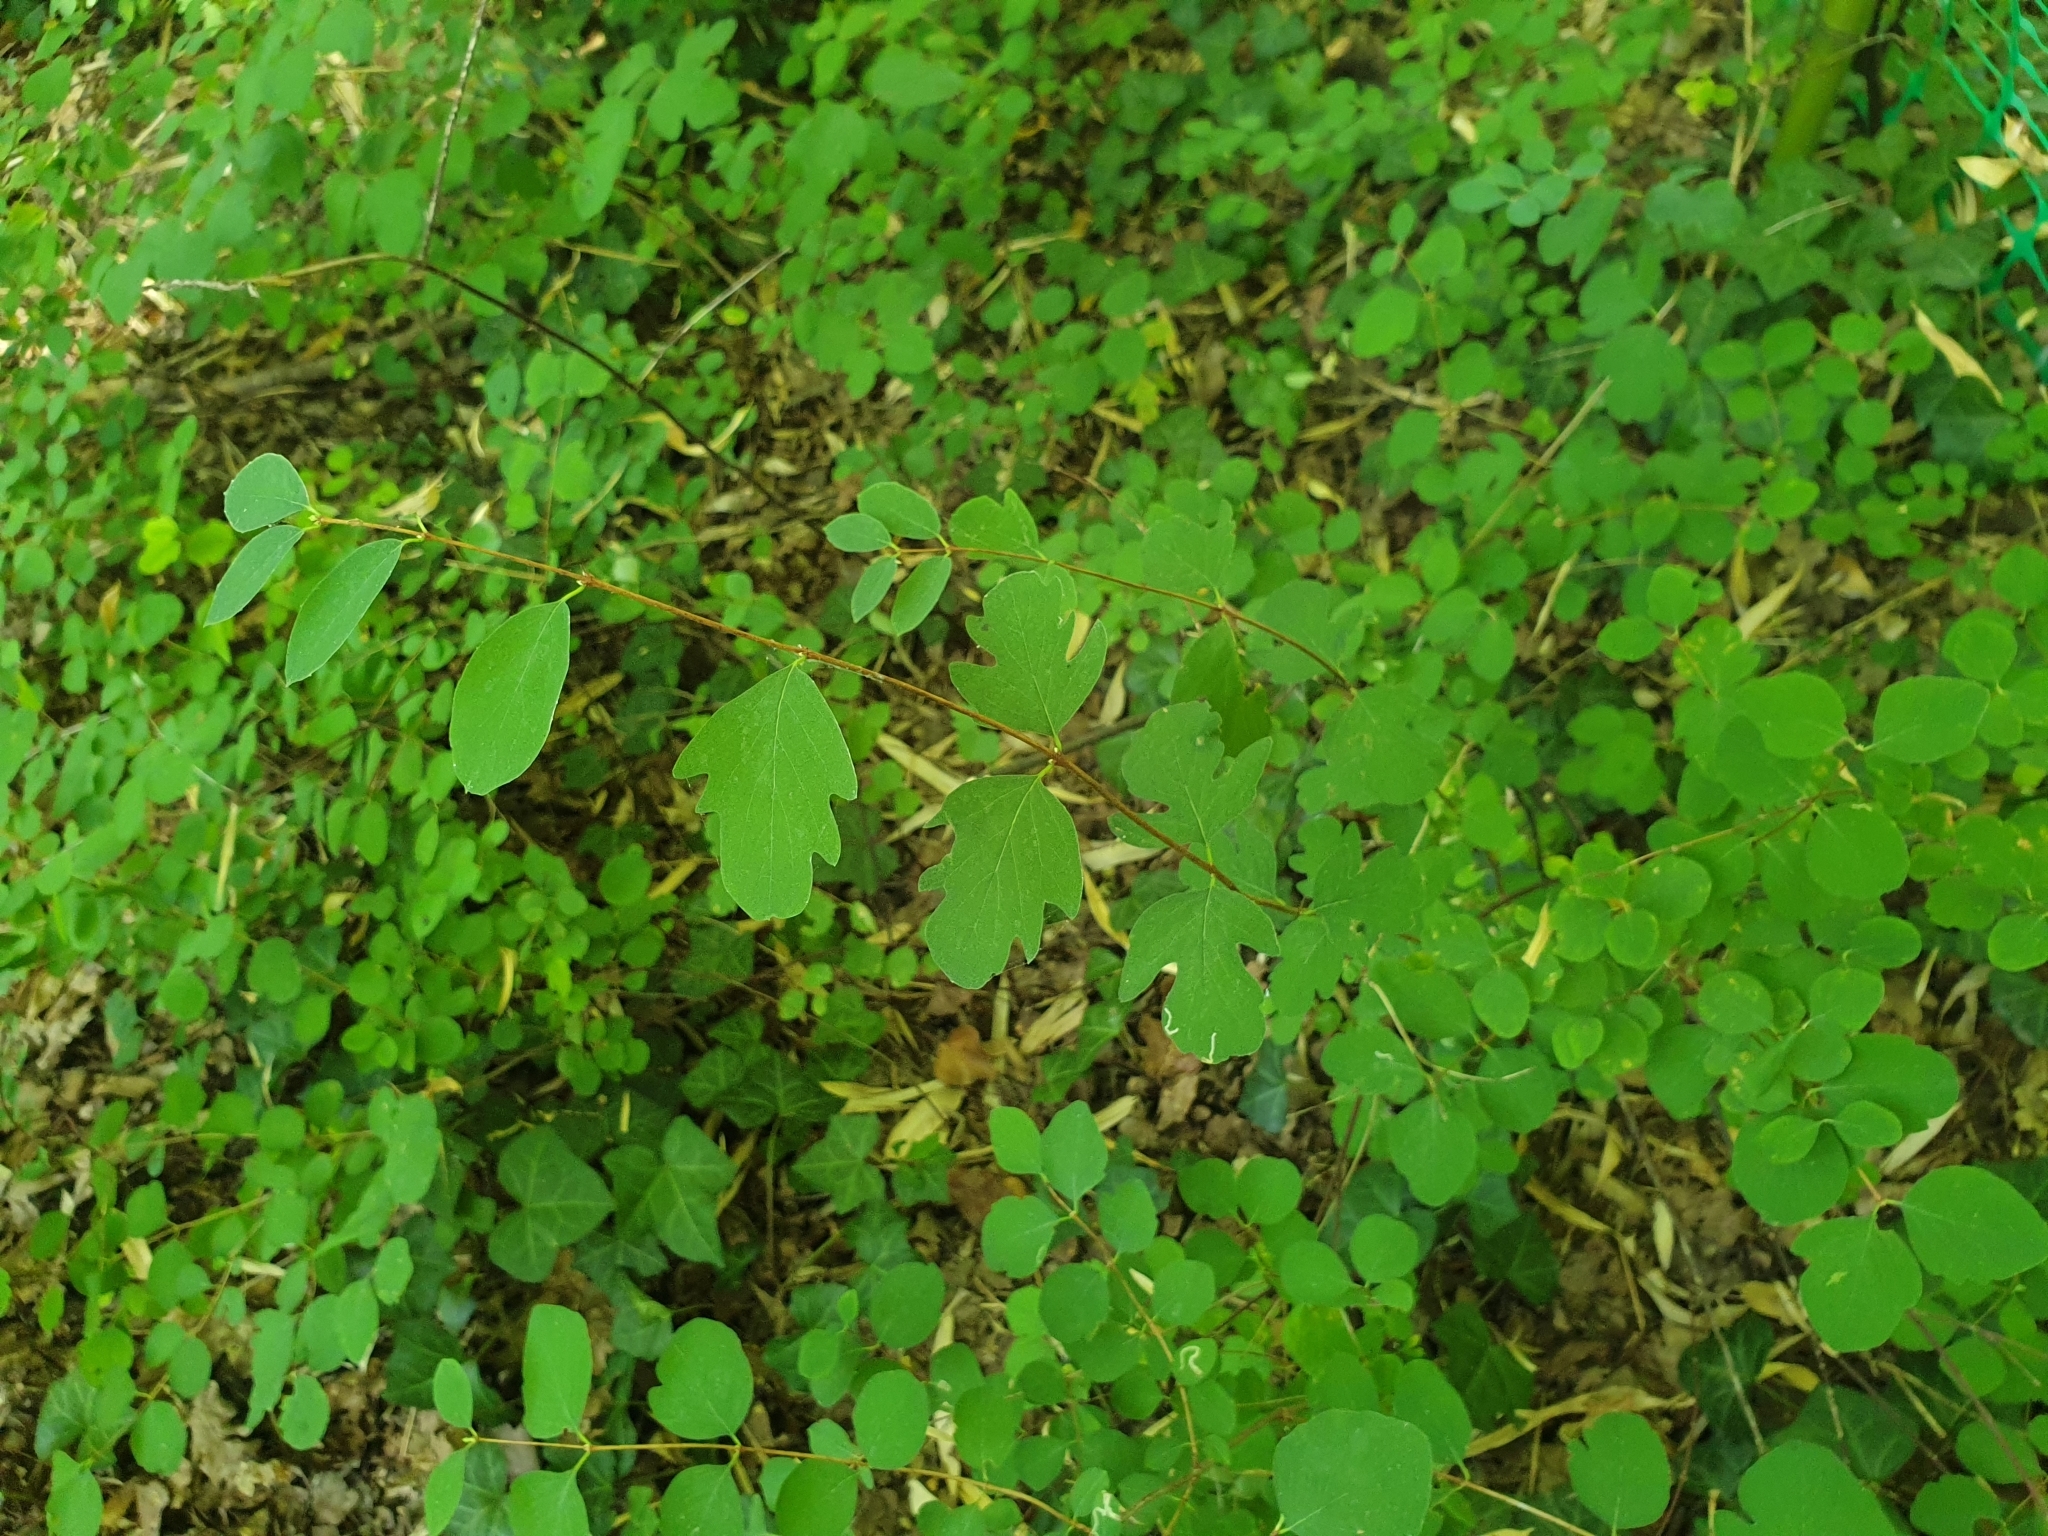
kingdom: Plantae
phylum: Tracheophyta
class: Magnoliopsida
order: Dipsacales
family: Caprifoliaceae
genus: Lonicera
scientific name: Lonicera japonica
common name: Japanese honeysuckle
